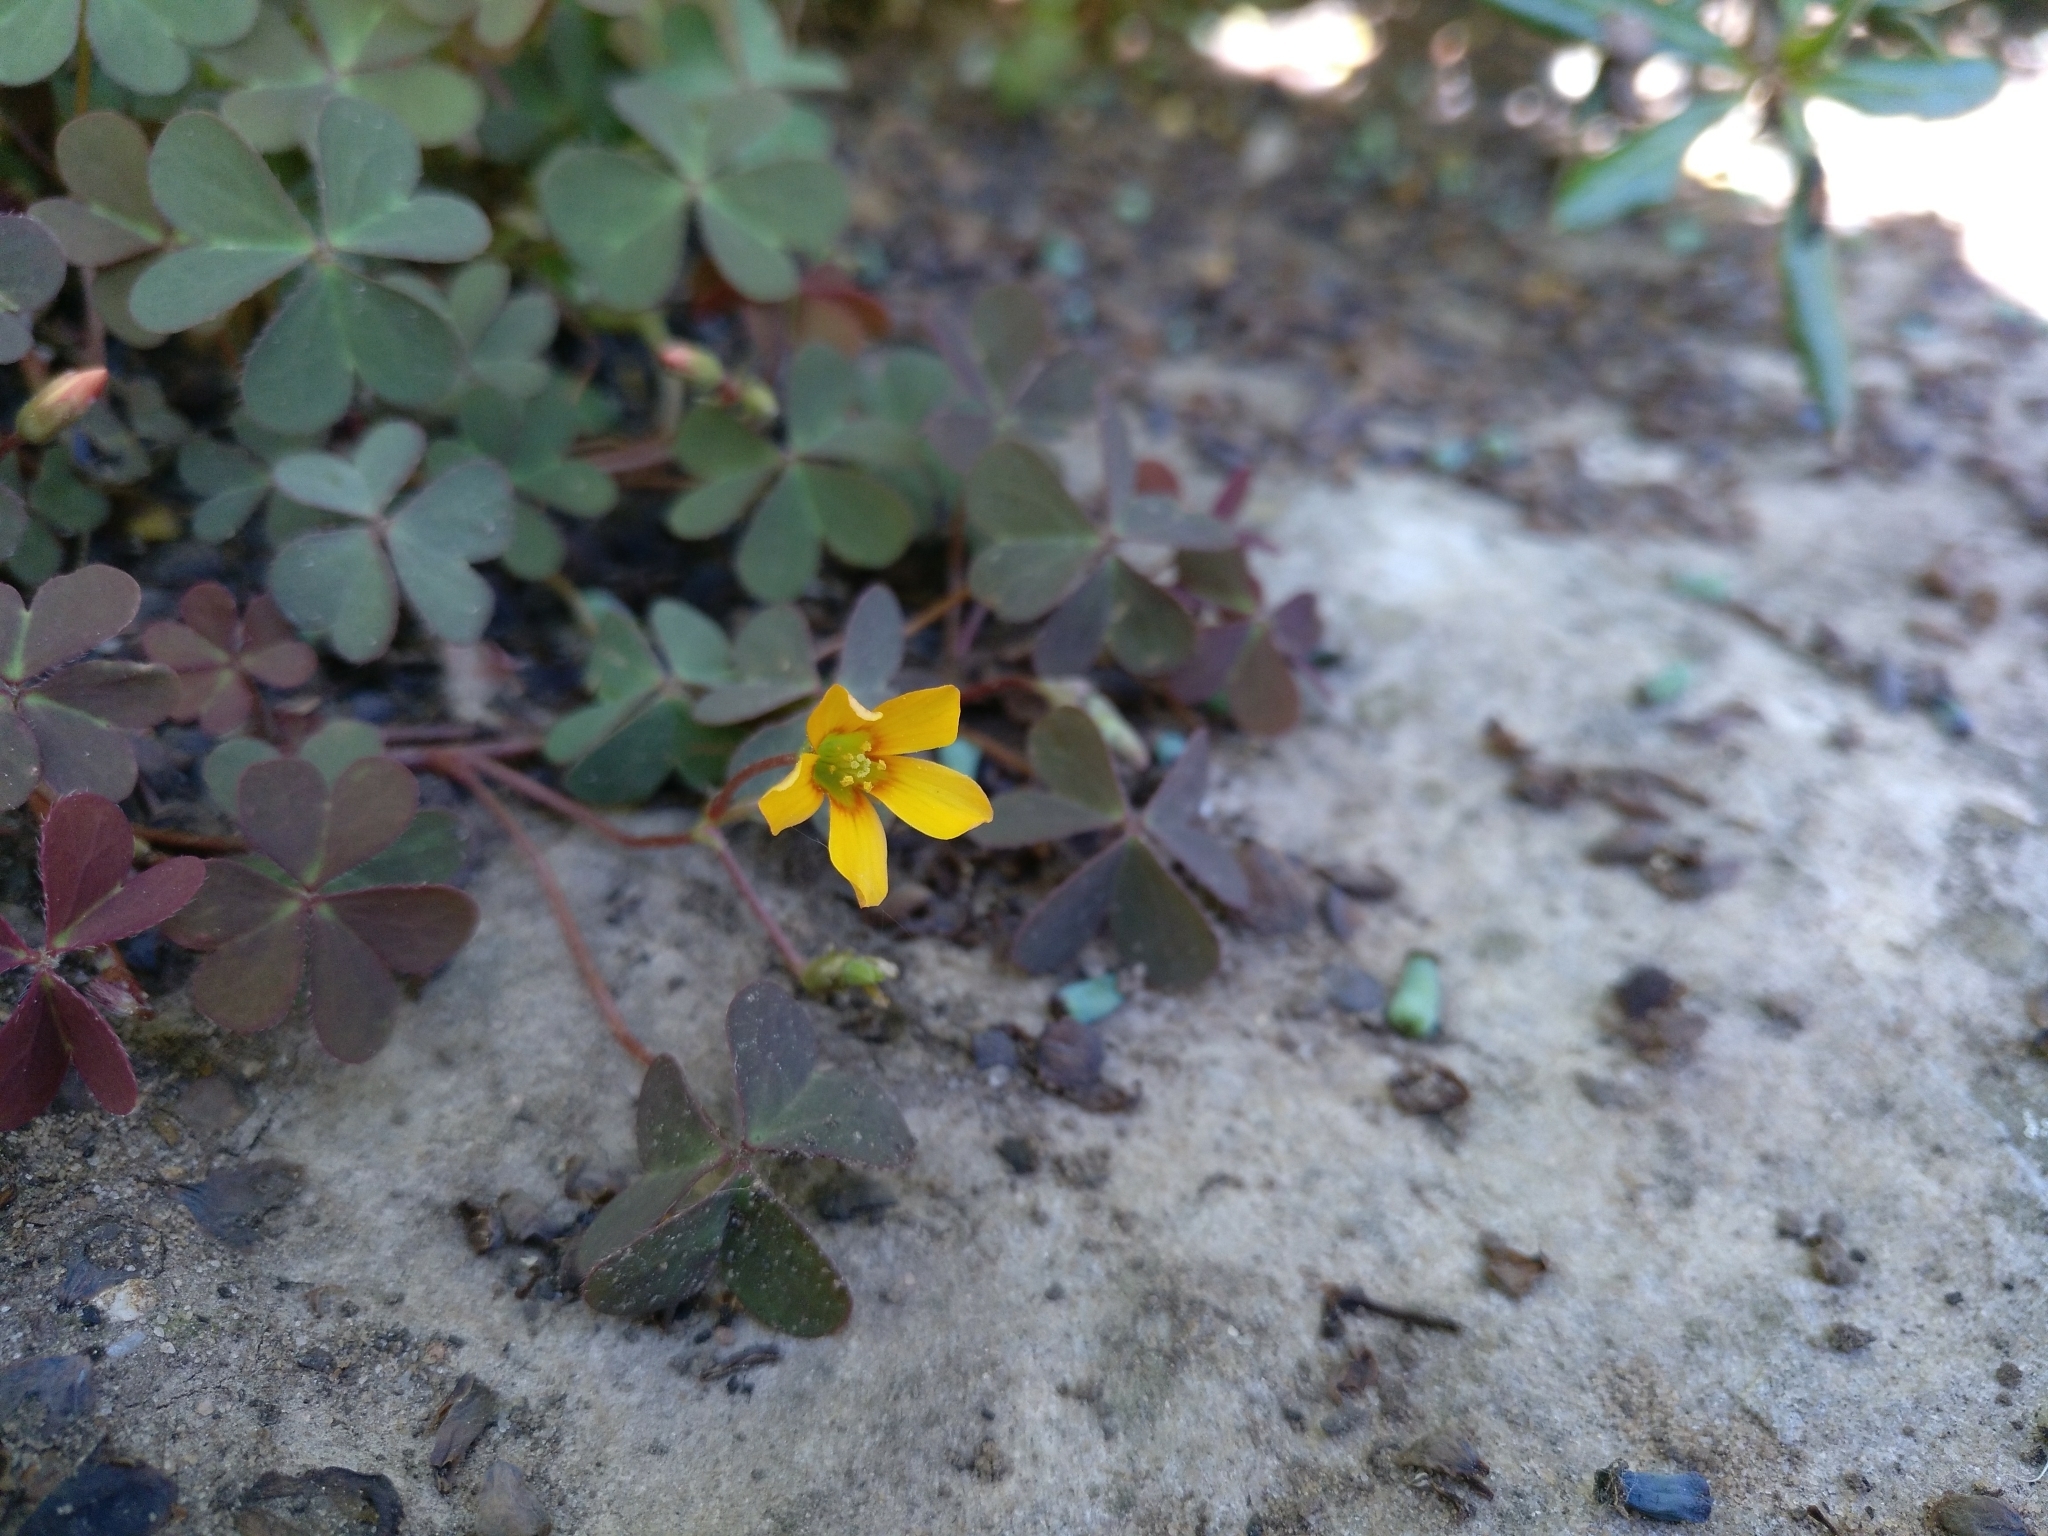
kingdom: Plantae
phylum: Tracheophyta
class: Magnoliopsida
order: Oxalidales
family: Oxalidaceae
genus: Oxalis
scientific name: Oxalis corniculata
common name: Procumbent yellow-sorrel
